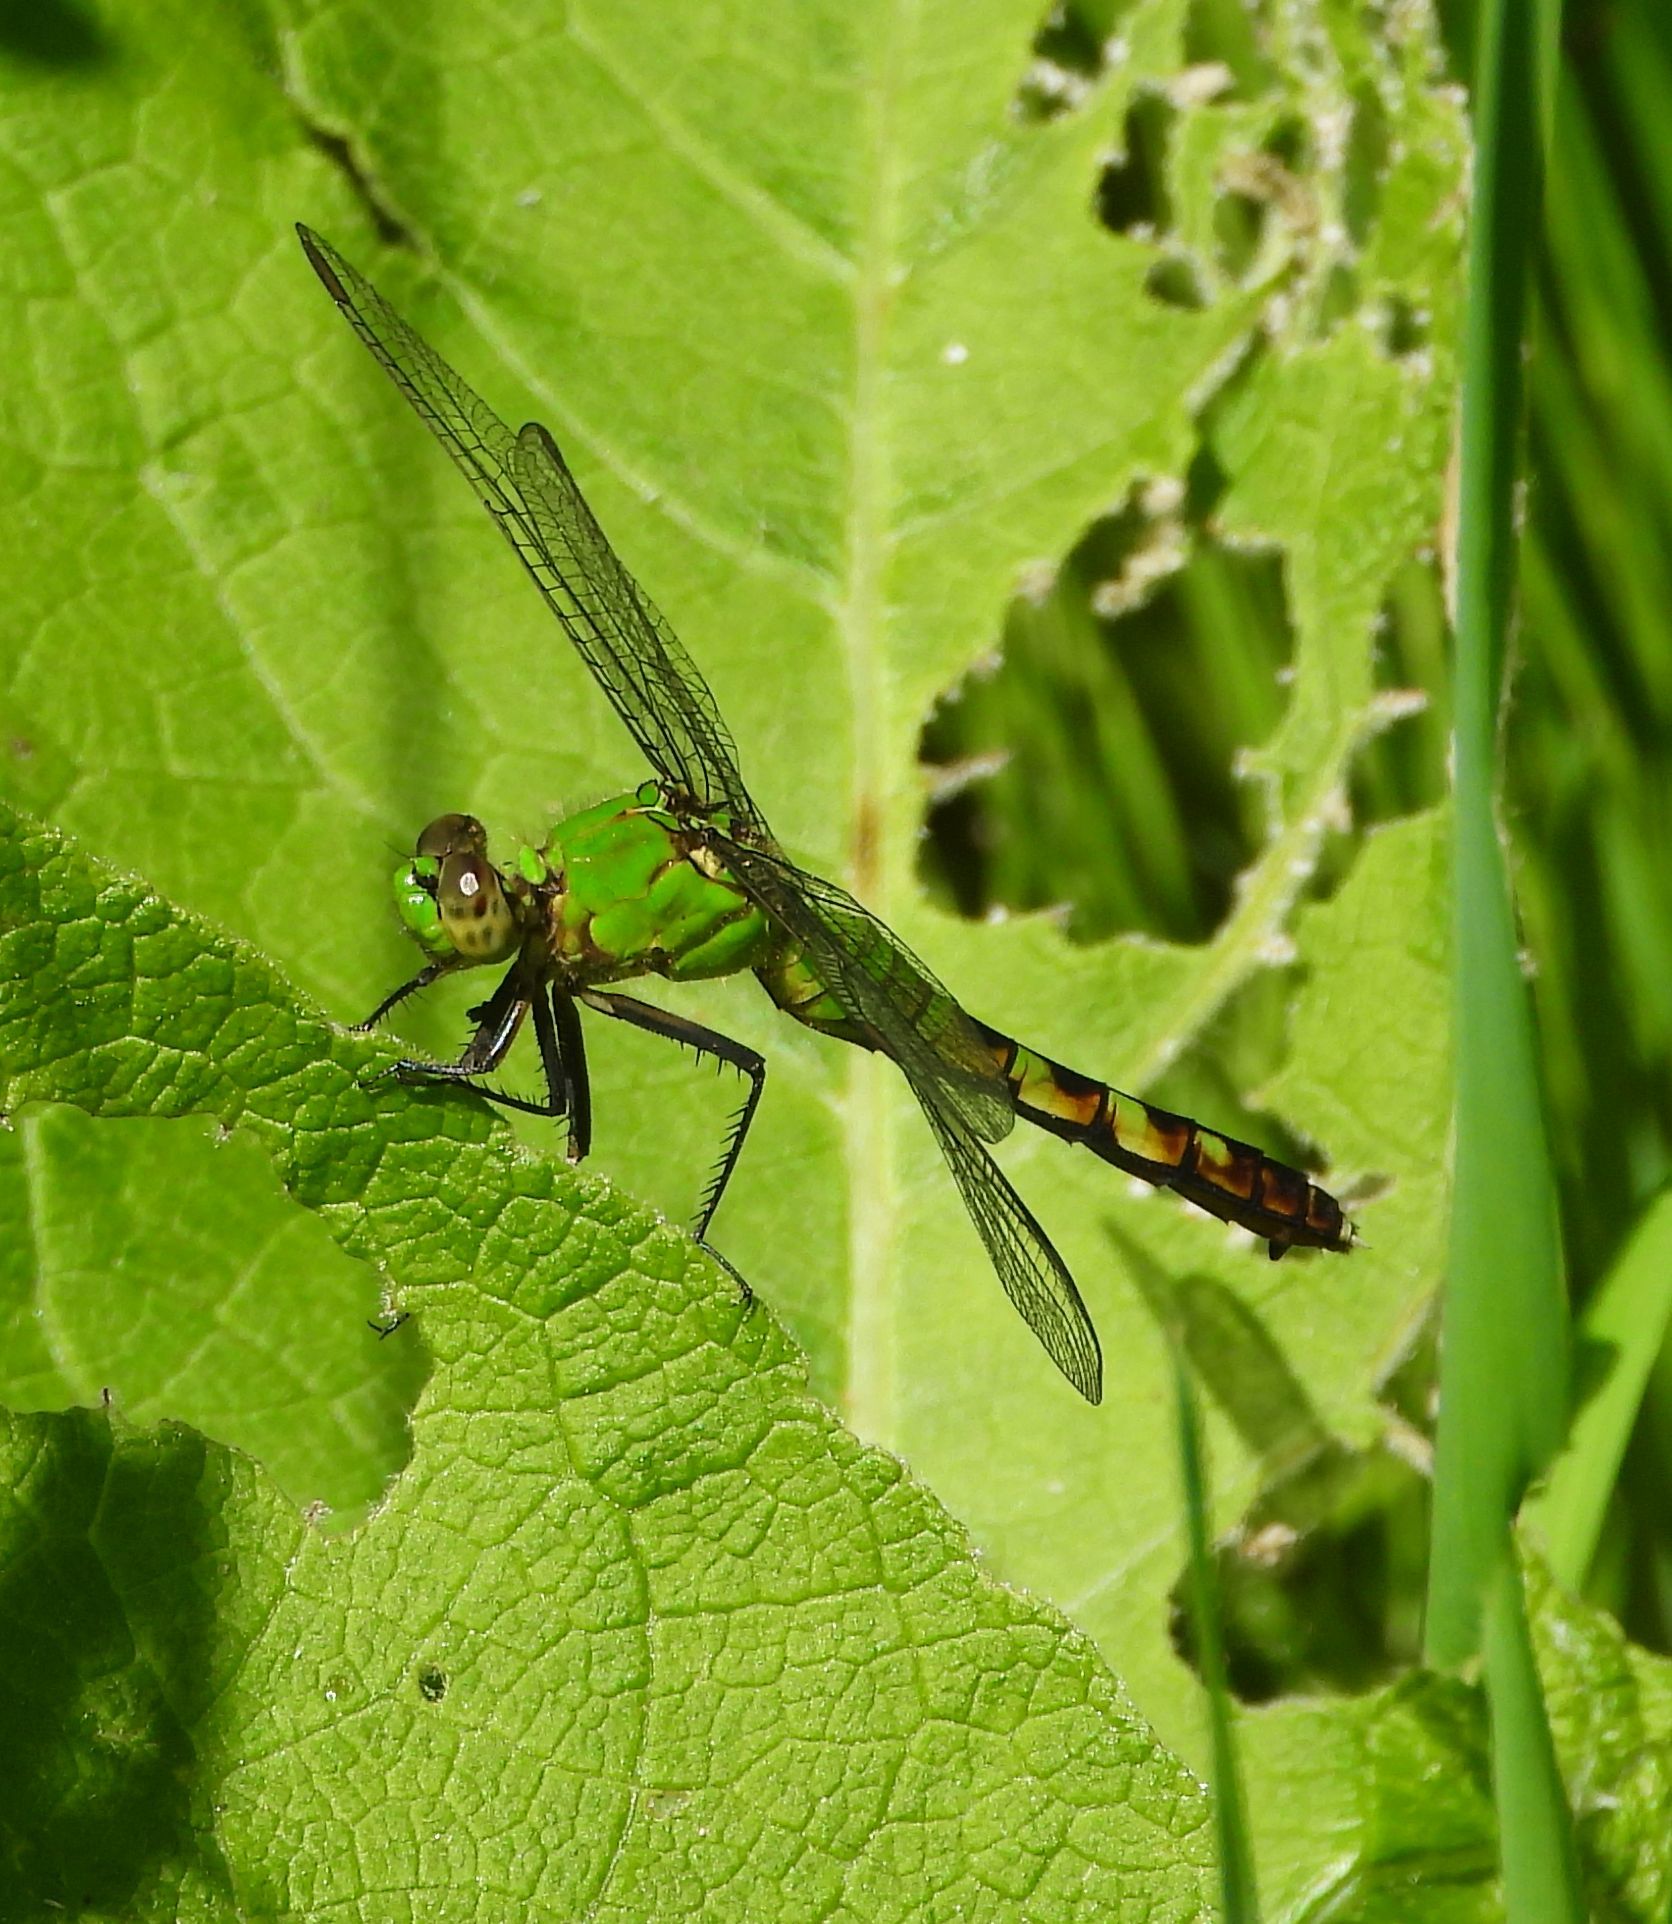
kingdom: Animalia
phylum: Arthropoda
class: Insecta
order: Odonata
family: Libellulidae
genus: Erythemis
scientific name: Erythemis simplicicollis
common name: Eastern pondhawk
